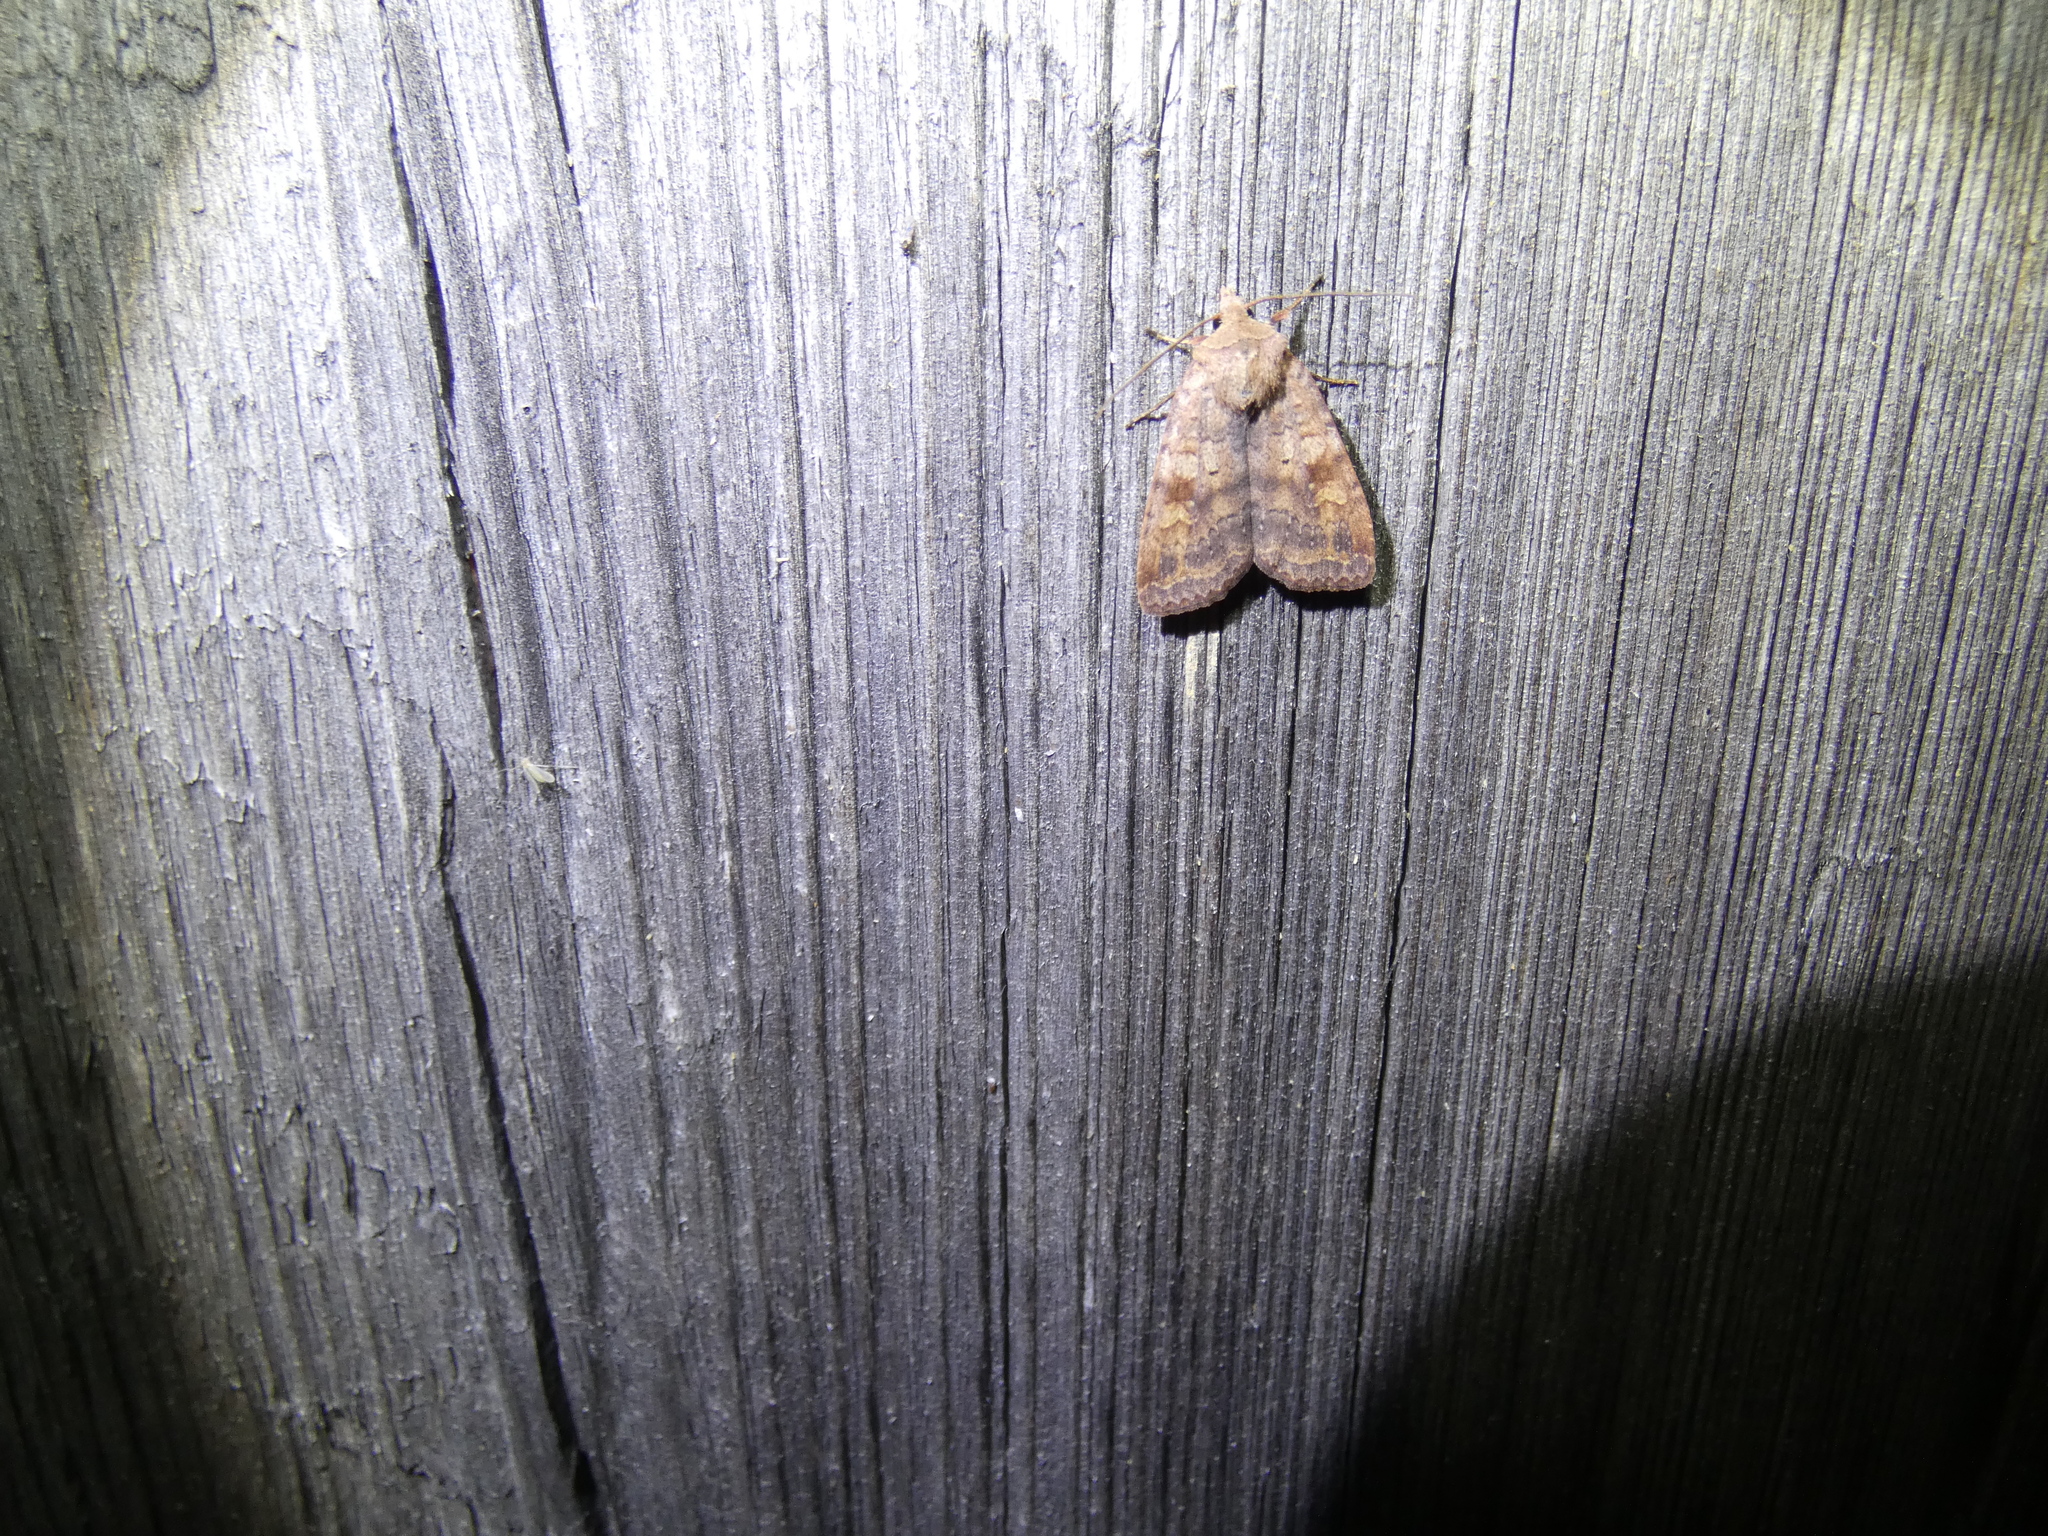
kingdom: Animalia
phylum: Arthropoda
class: Insecta
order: Lepidoptera
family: Noctuidae
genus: Diarsia
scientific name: Diarsia dahlii
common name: Barred chestnut
